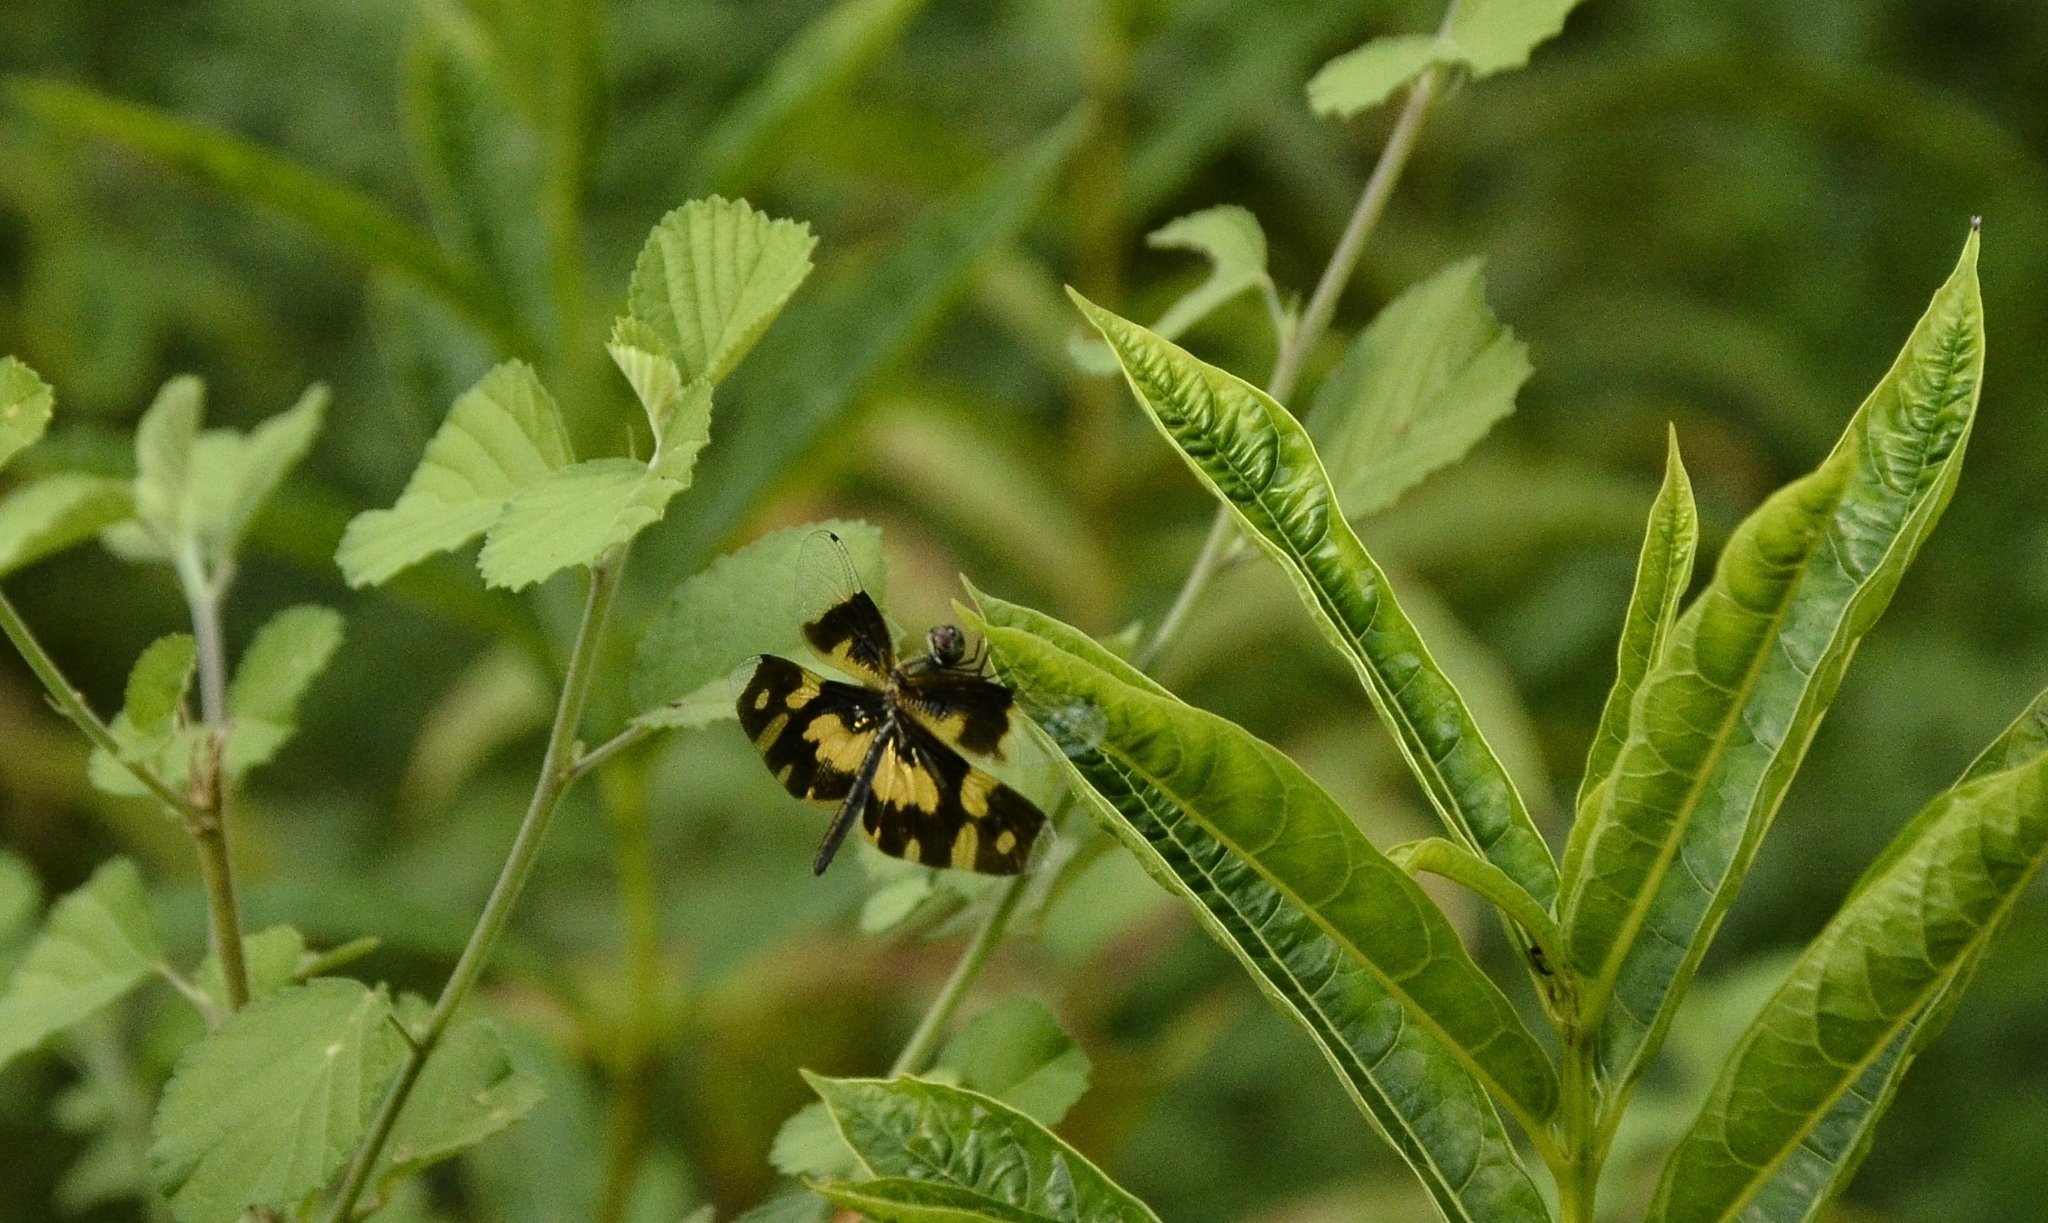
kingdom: Animalia
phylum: Arthropoda
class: Insecta
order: Odonata
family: Libellulidae
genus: Rhyothemis
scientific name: Rhyothemis variegata
